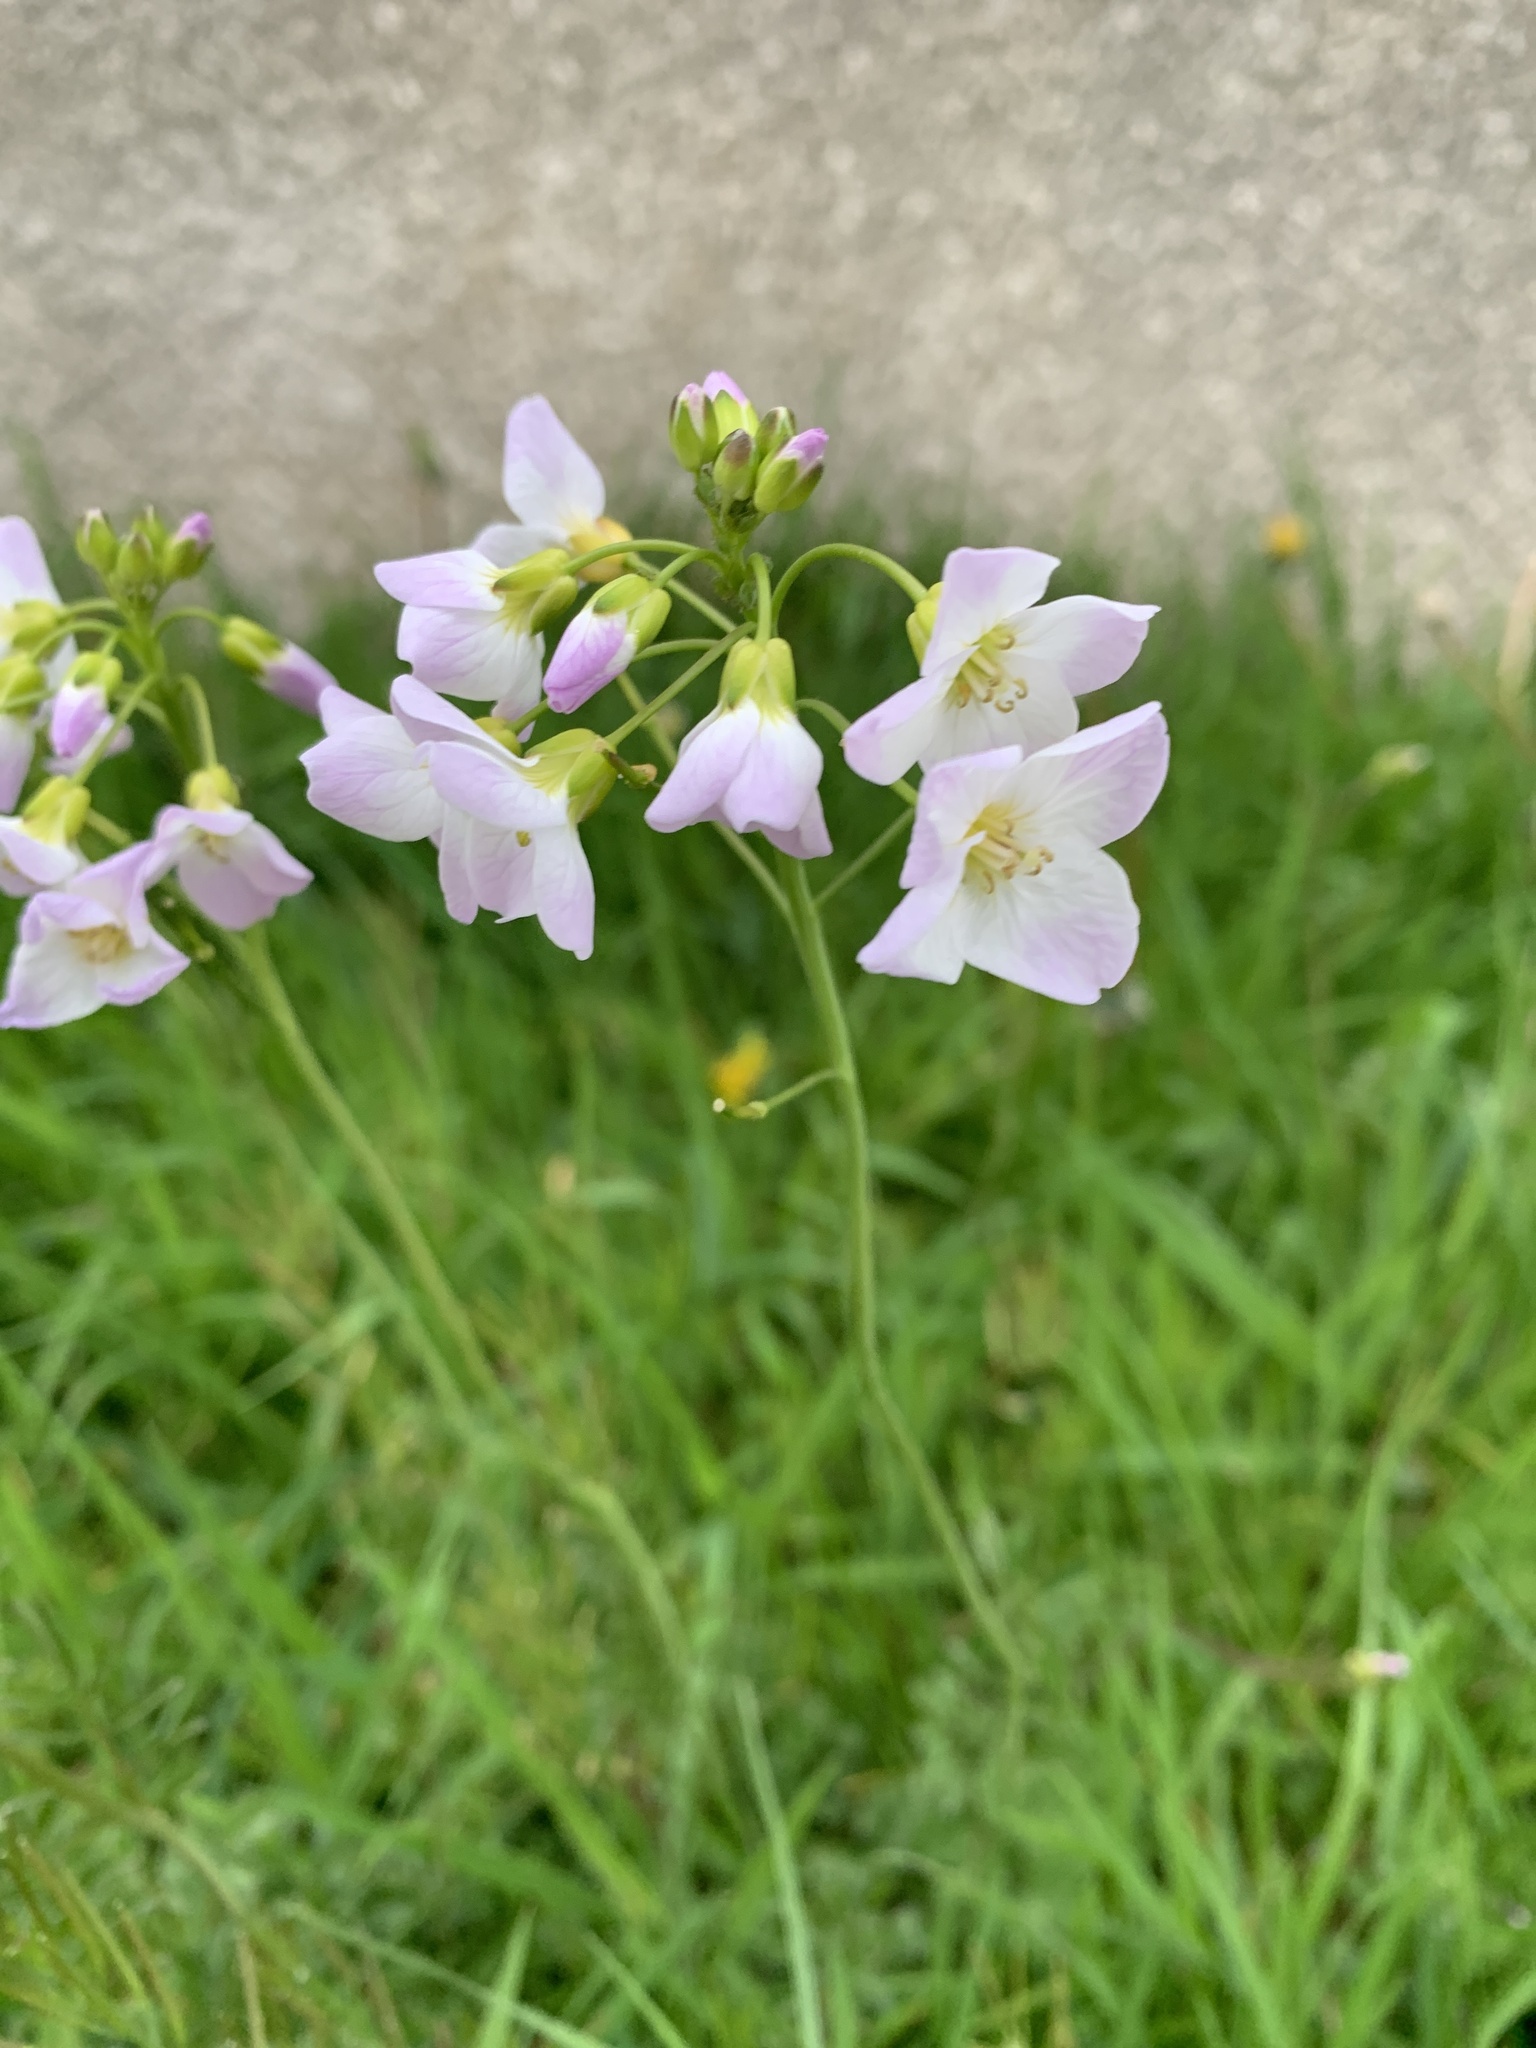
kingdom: Plantae
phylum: Tracheophyta
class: Magnoliopsida
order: Brassicales
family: Brassicaceae
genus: Cardamine
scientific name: Cardamine pratensis
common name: Cuckoo flower
